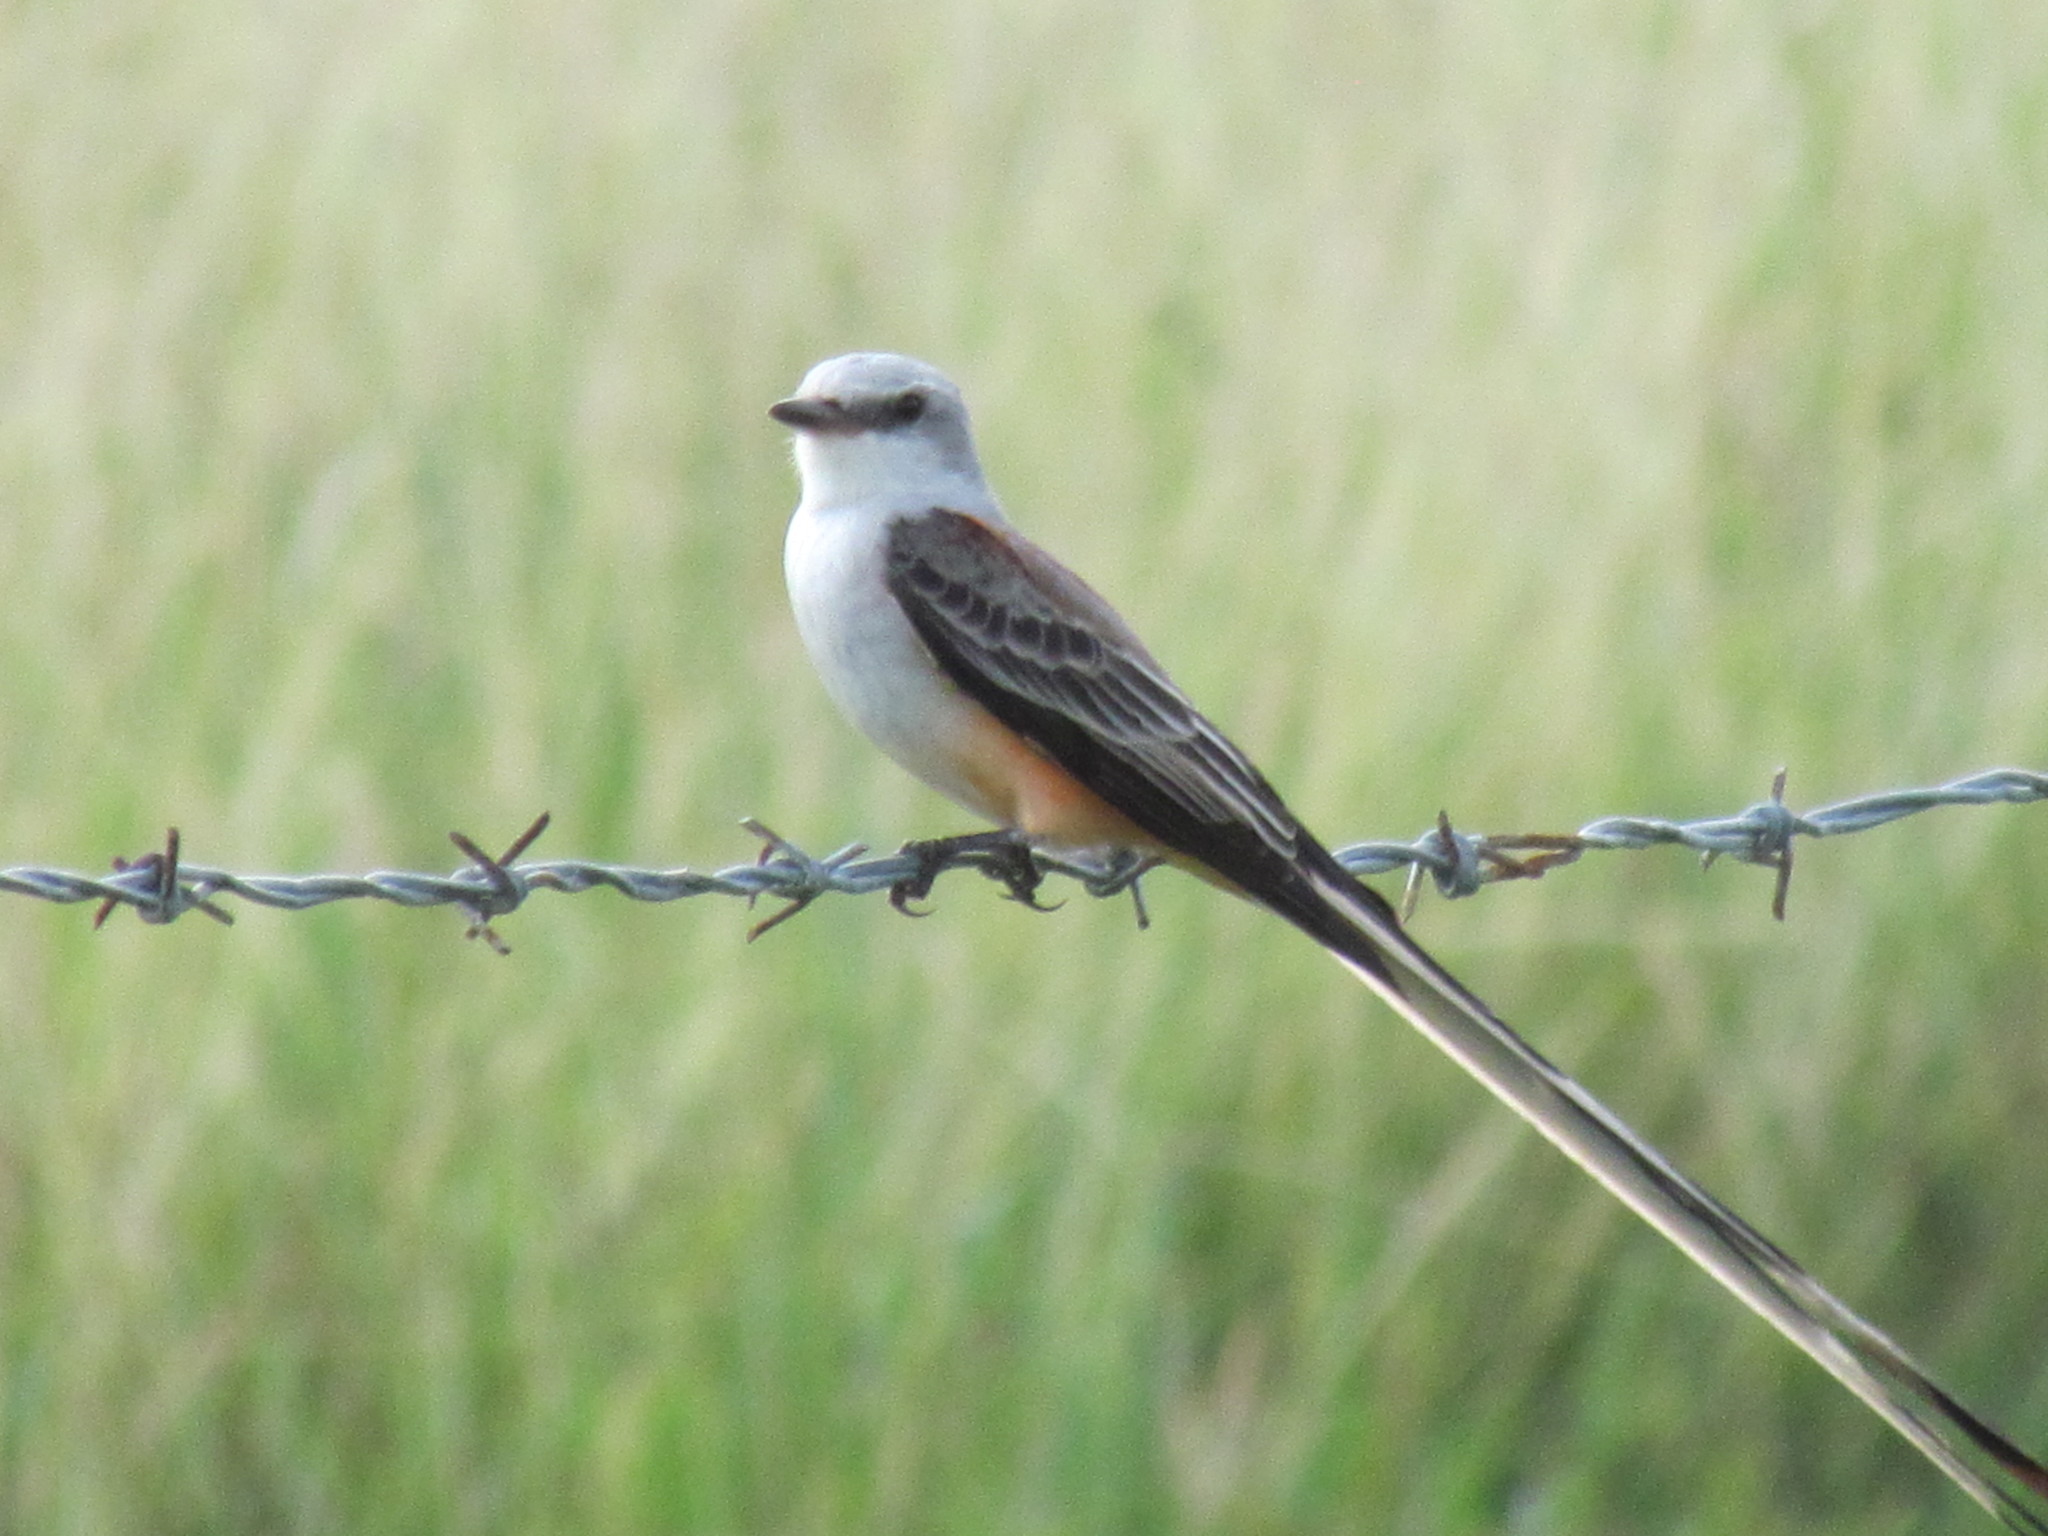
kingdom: Animalia
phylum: Chordata
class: Aves
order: Passeriformes
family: Tyrannidae
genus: Tyrannus
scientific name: Tyrannus forficatus
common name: Scissor-tailed flycatcher
